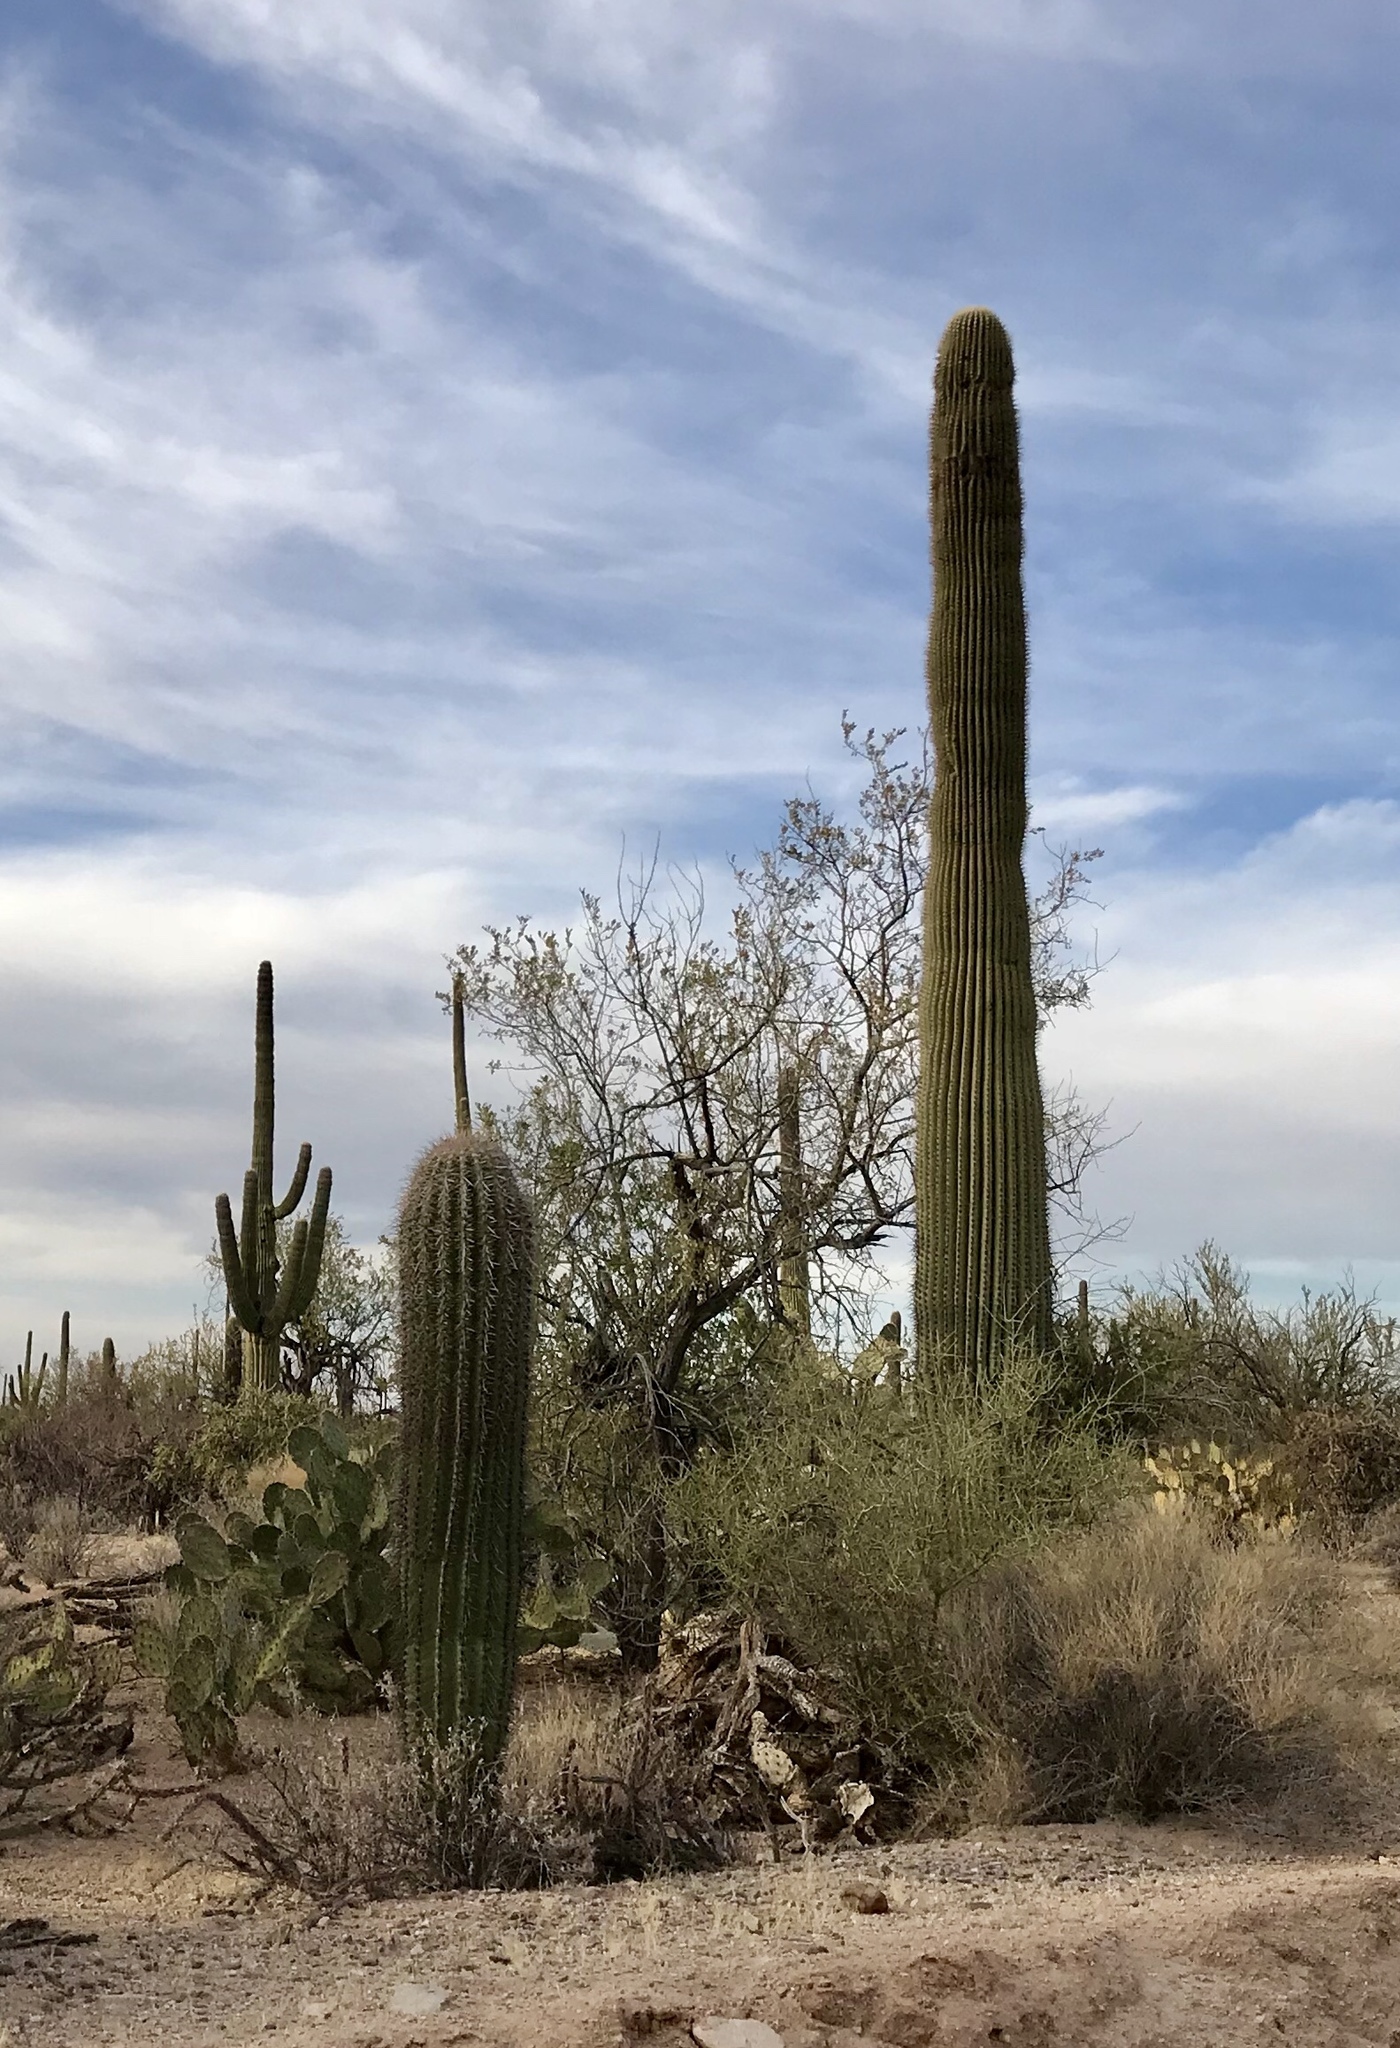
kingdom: Plantae
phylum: Tracheophyta
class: Magnoliopsida
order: Caryophyllales
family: Cactaceae
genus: Carnegiea
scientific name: Carnegiea gigantea
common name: Saguaro
